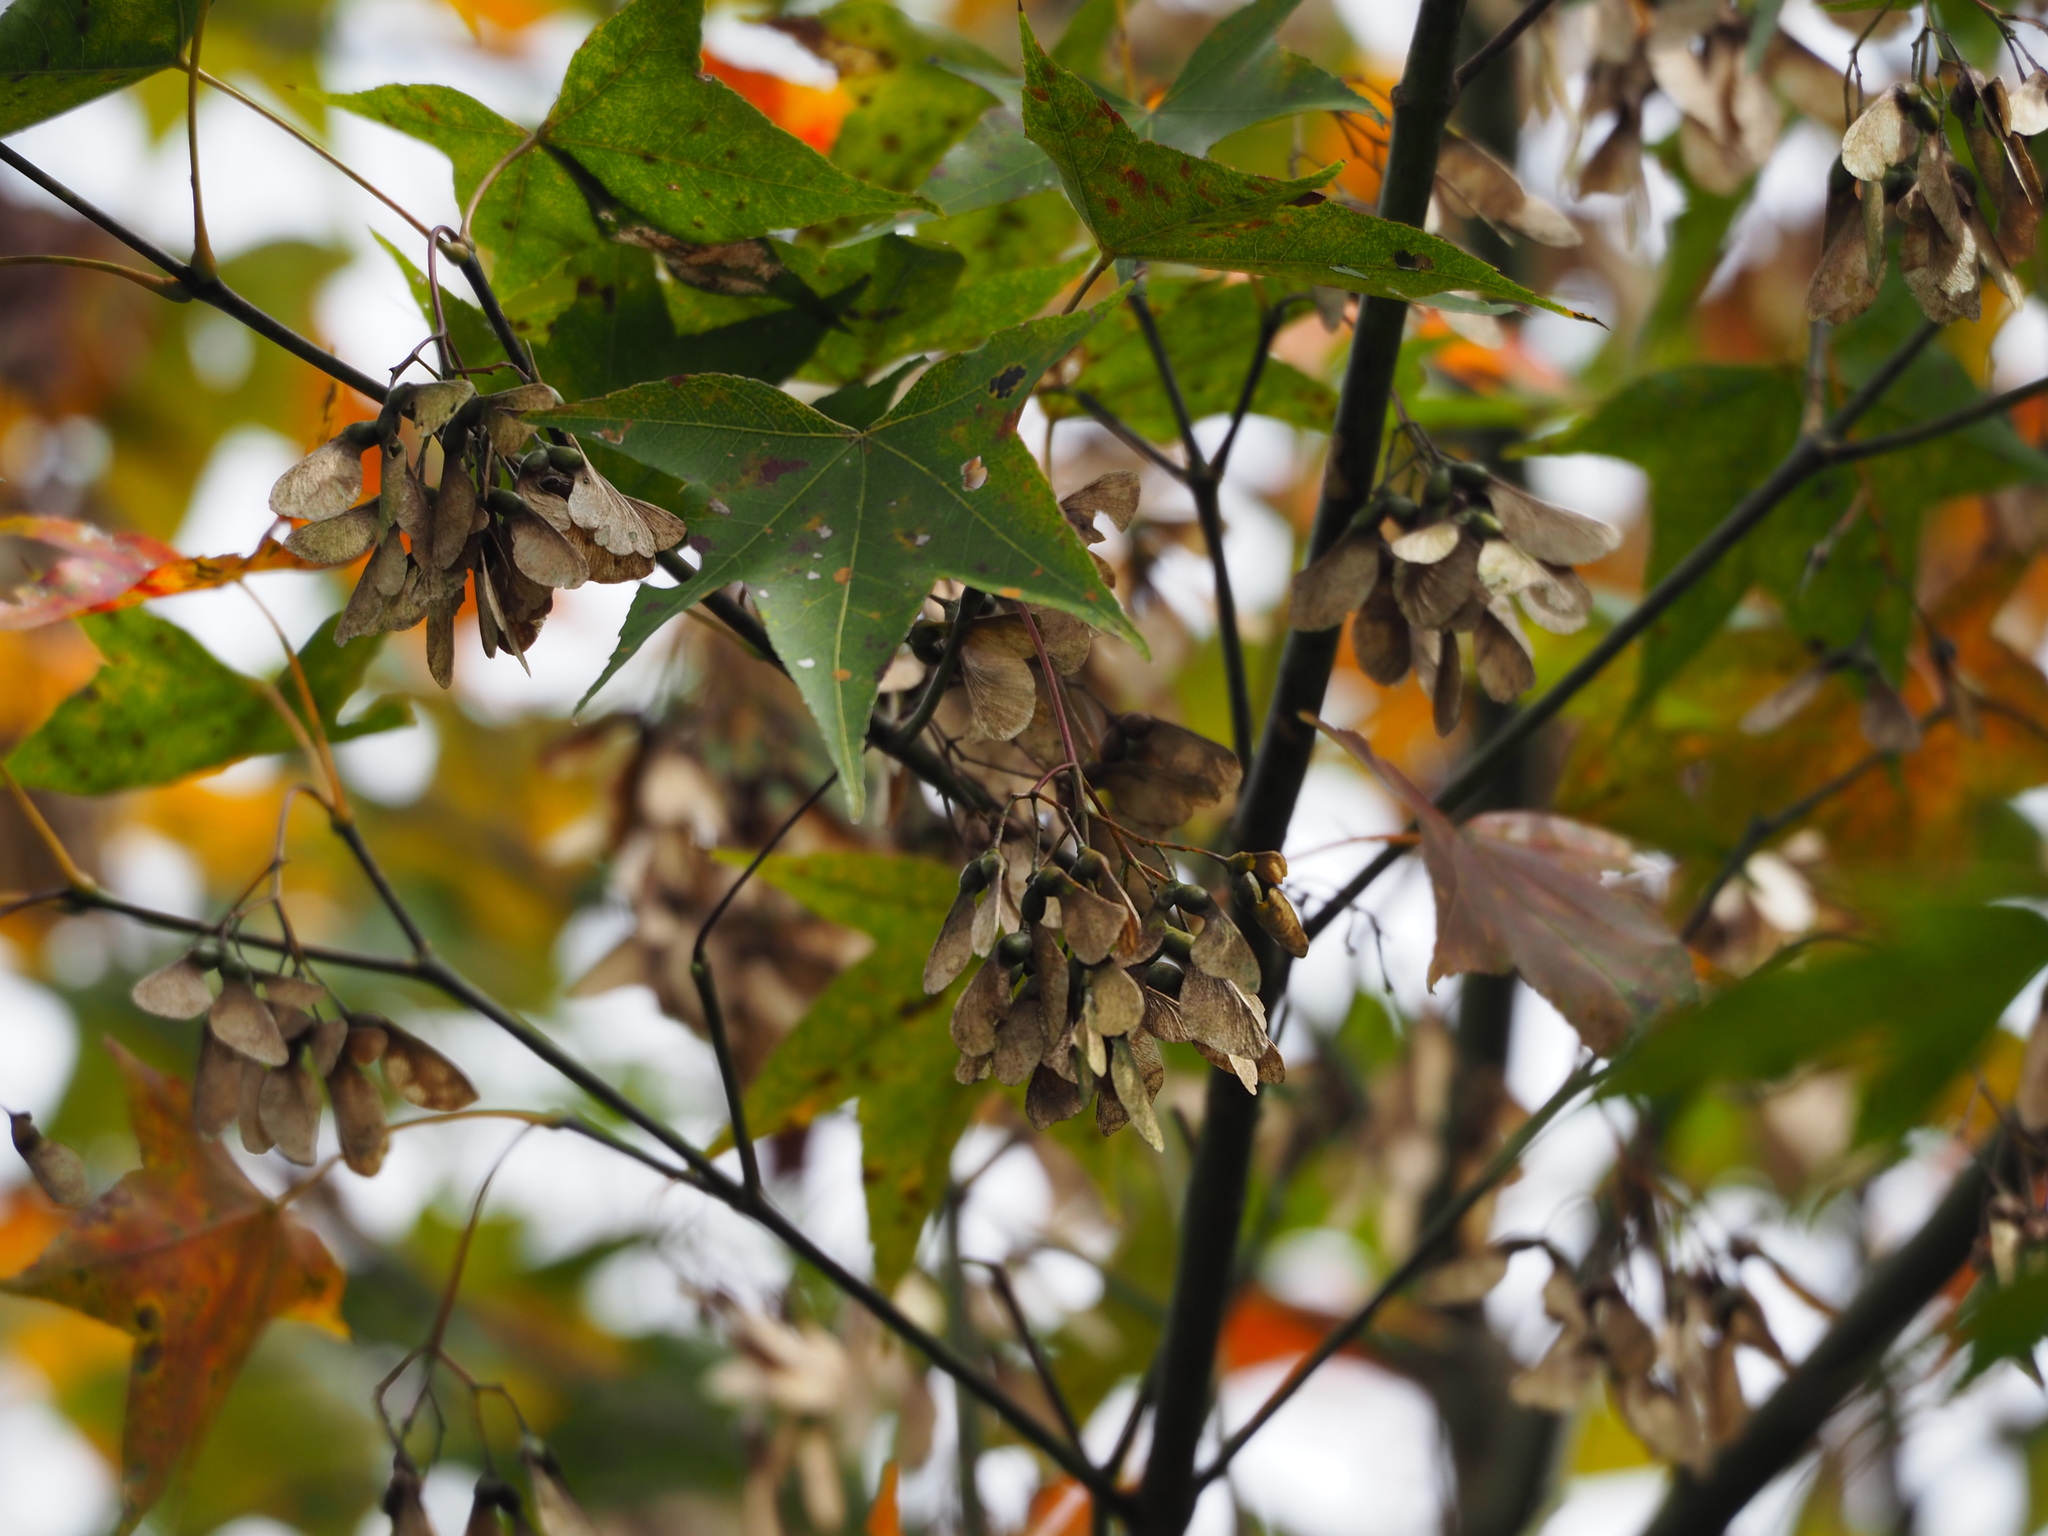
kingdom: Plantae
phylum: Tracheophyta
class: Magnoliopsida
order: Sapindales
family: Sapindaceae
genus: Acer
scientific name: Acer serrulatum
